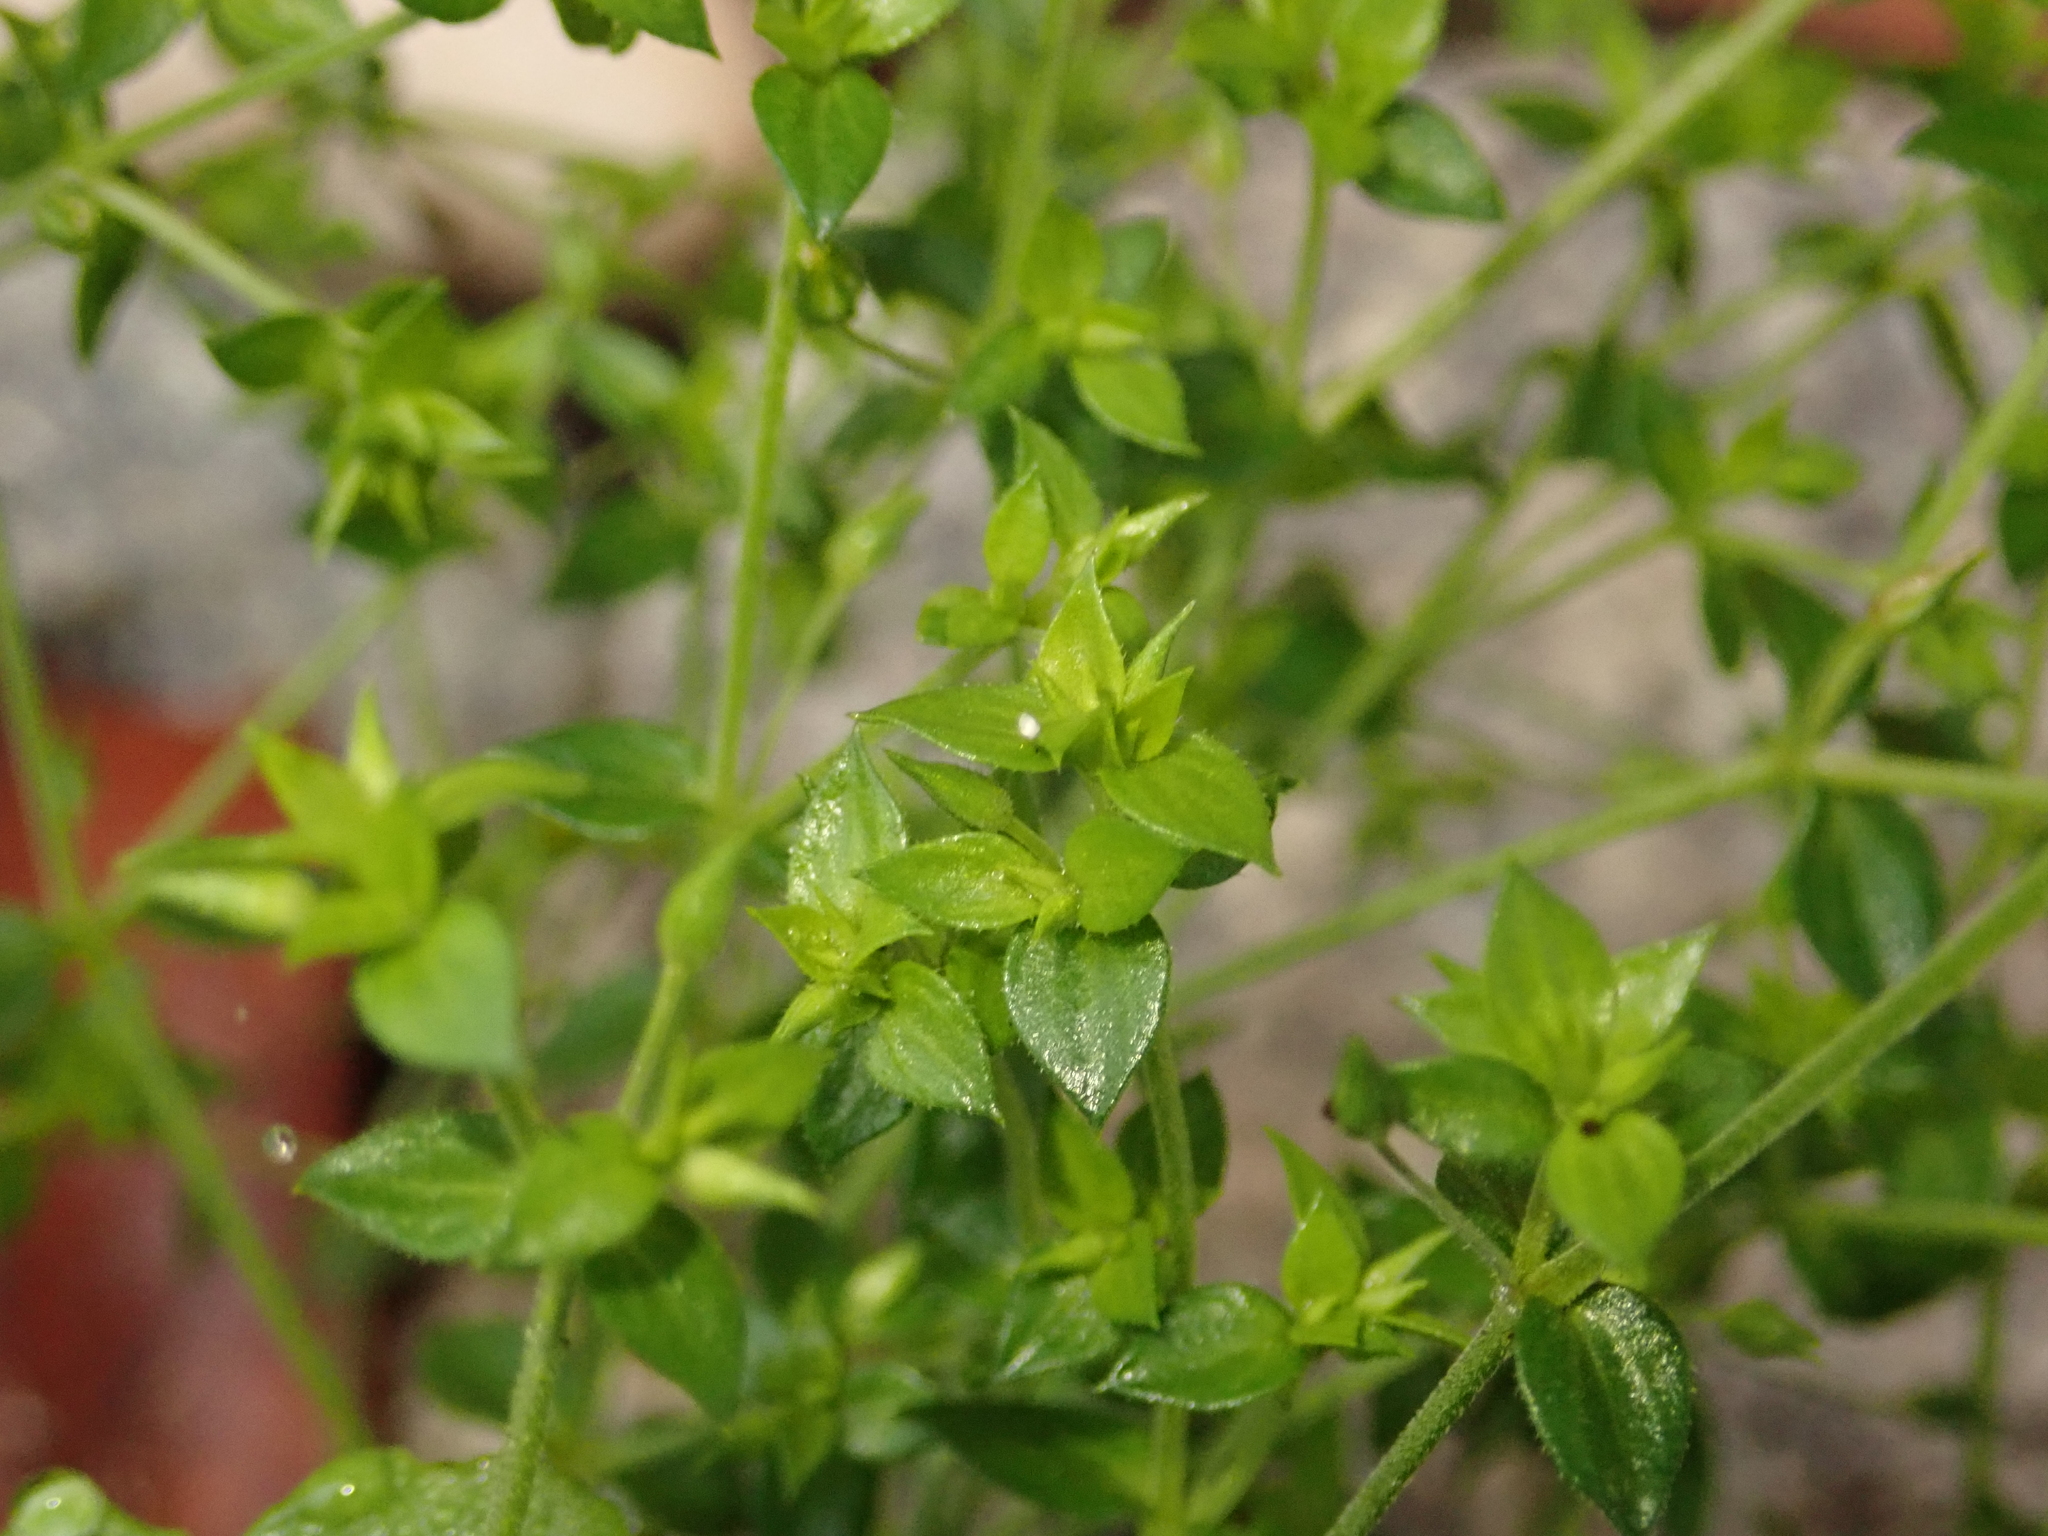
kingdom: Plantae
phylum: Tracheophyta
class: Magnoliopsida
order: Caryophyllales
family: Caryophyllaceae
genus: Moehringia
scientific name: Moehringia trinervia
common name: Three-nerved sandwort
